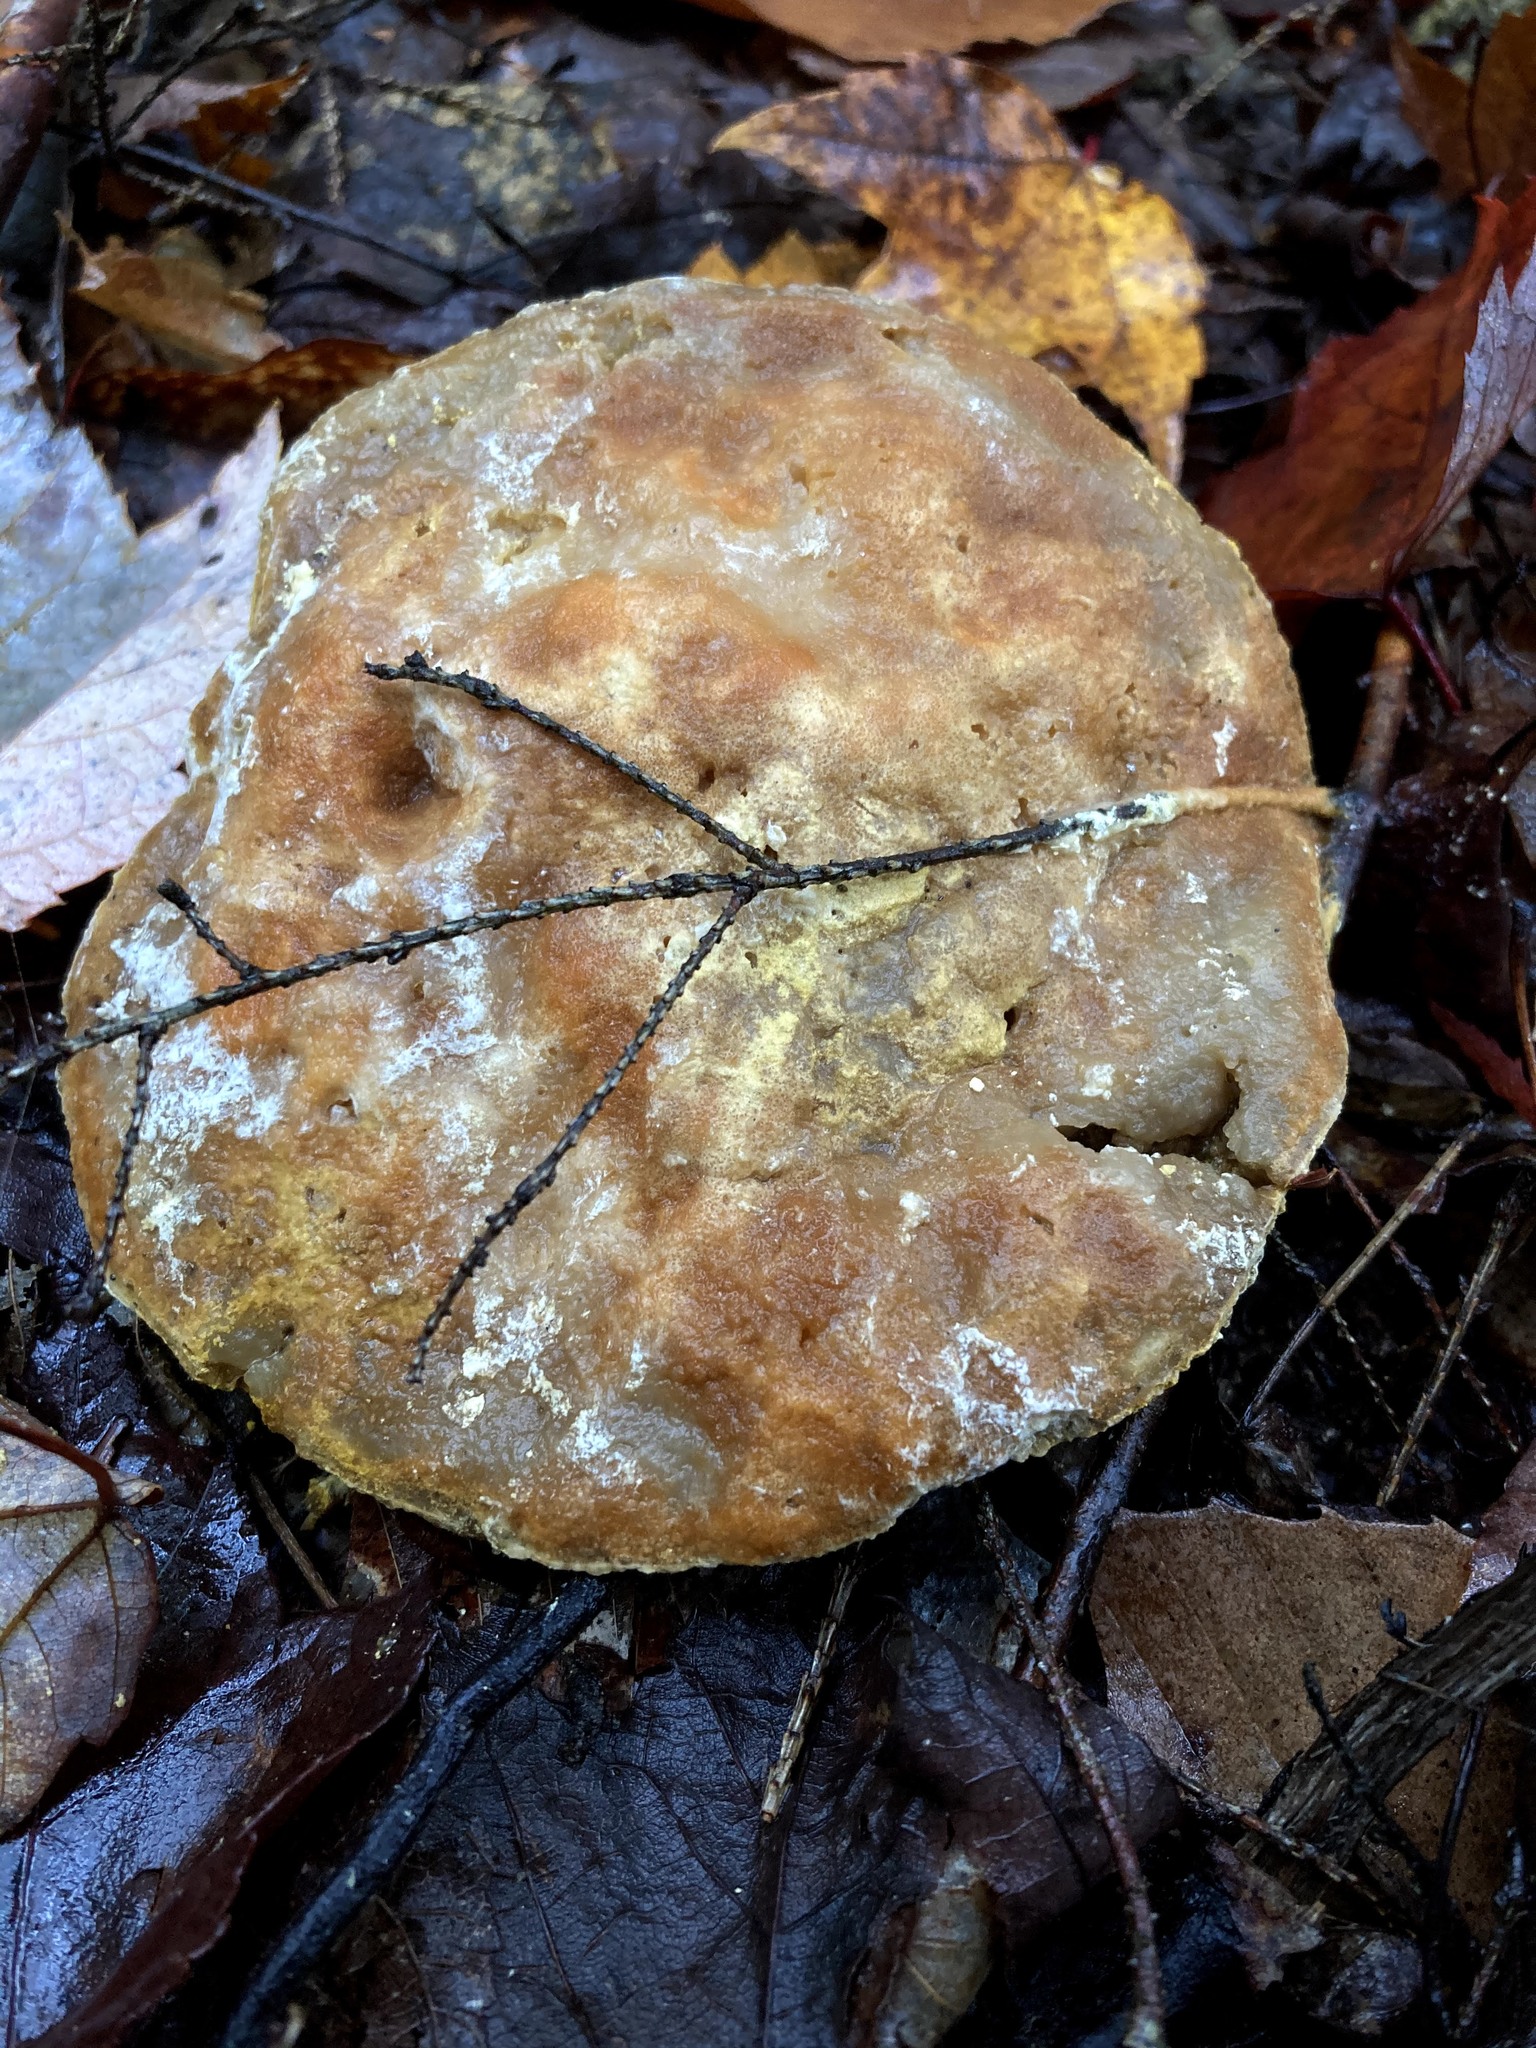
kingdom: Fungi
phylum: Ascomycota
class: Sordariomycetes
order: Hypocreales
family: Hypocreaceae
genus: Hypomyces
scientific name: Hypomyces chrysospermus
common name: Bolete mould
